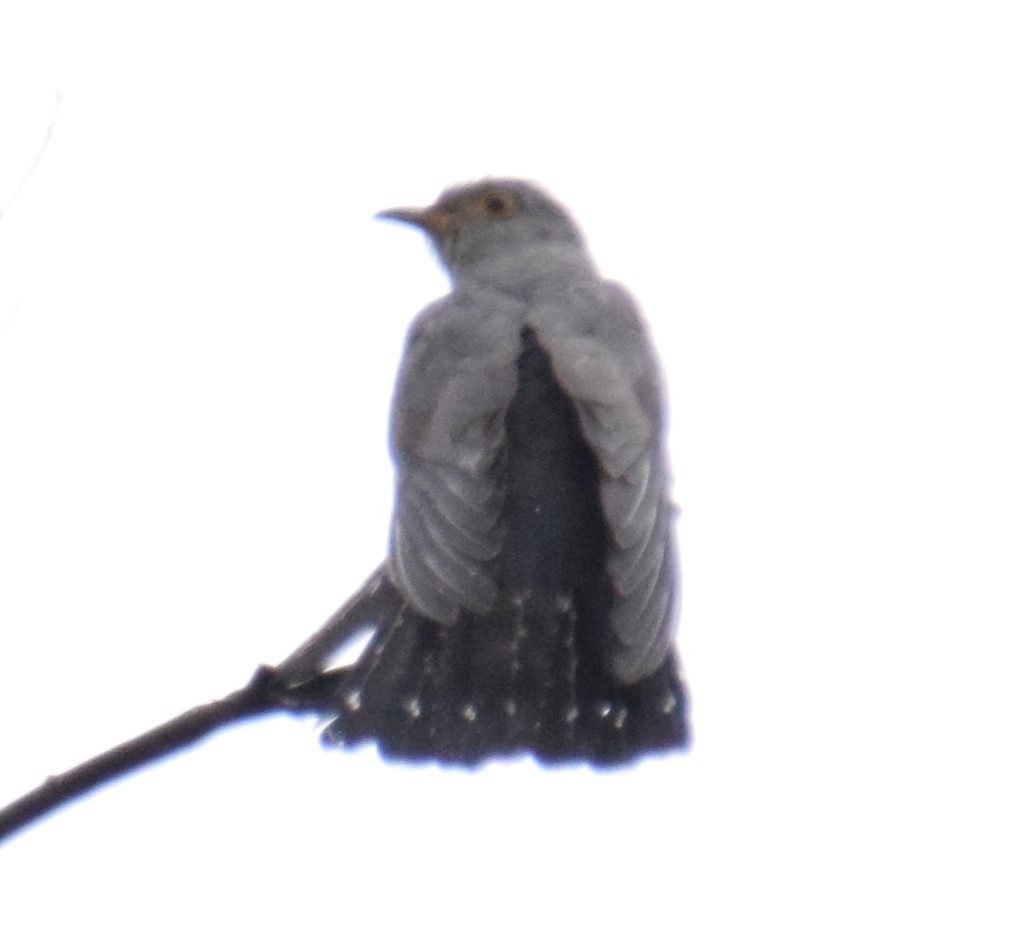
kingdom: Animalia
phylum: Chordata
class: Aves
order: Cuculiformes
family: Cuculidae
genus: Cuculus
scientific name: Cuculus optatus
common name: Oriental cuckoo
